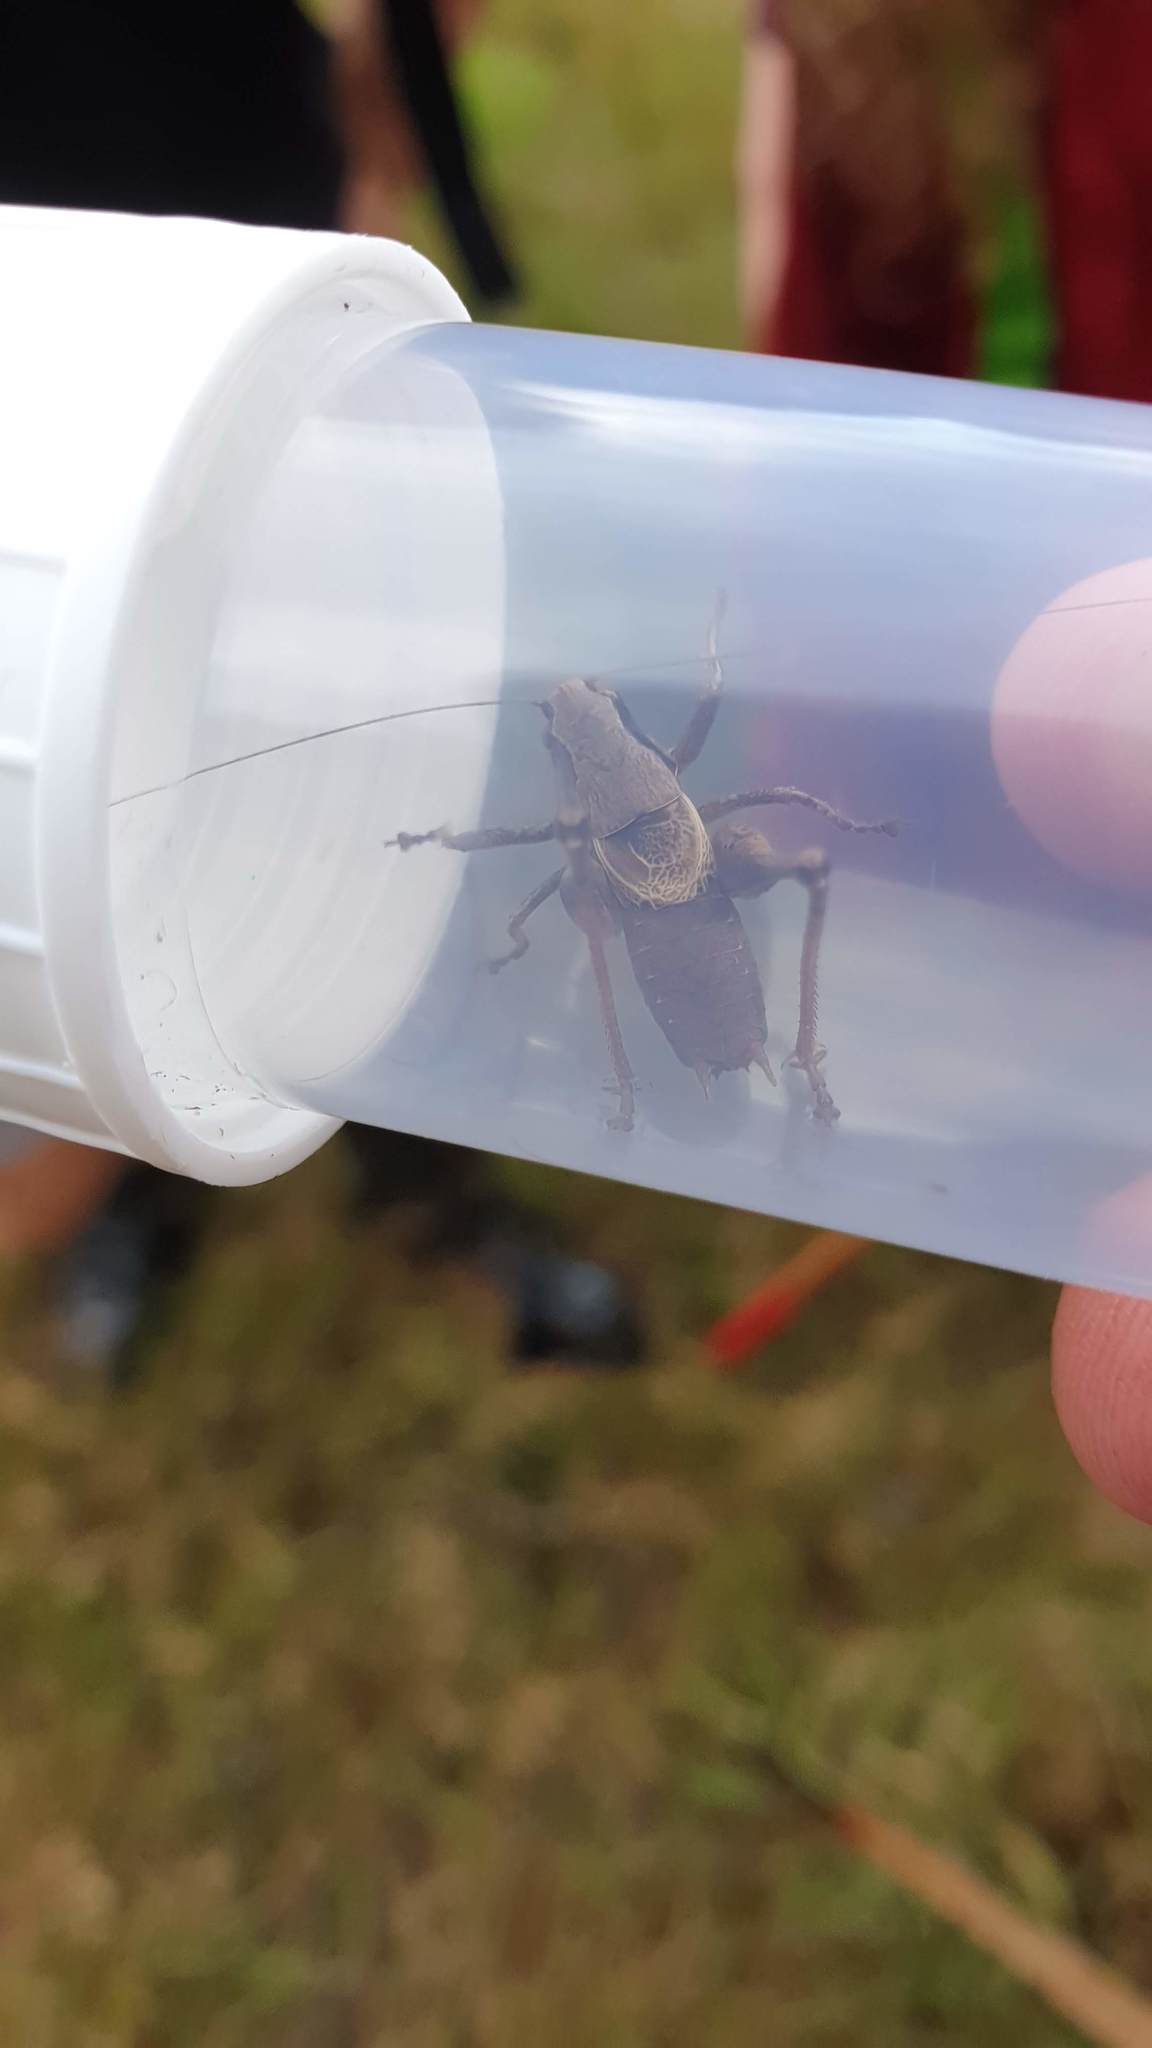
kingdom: Animalia
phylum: Arthropoda
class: Insecta
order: Orthoptera
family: Tettigoniidae
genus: Pholidoptera
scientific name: Pholidoptera griseoaptera
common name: Dark bush-cricket
